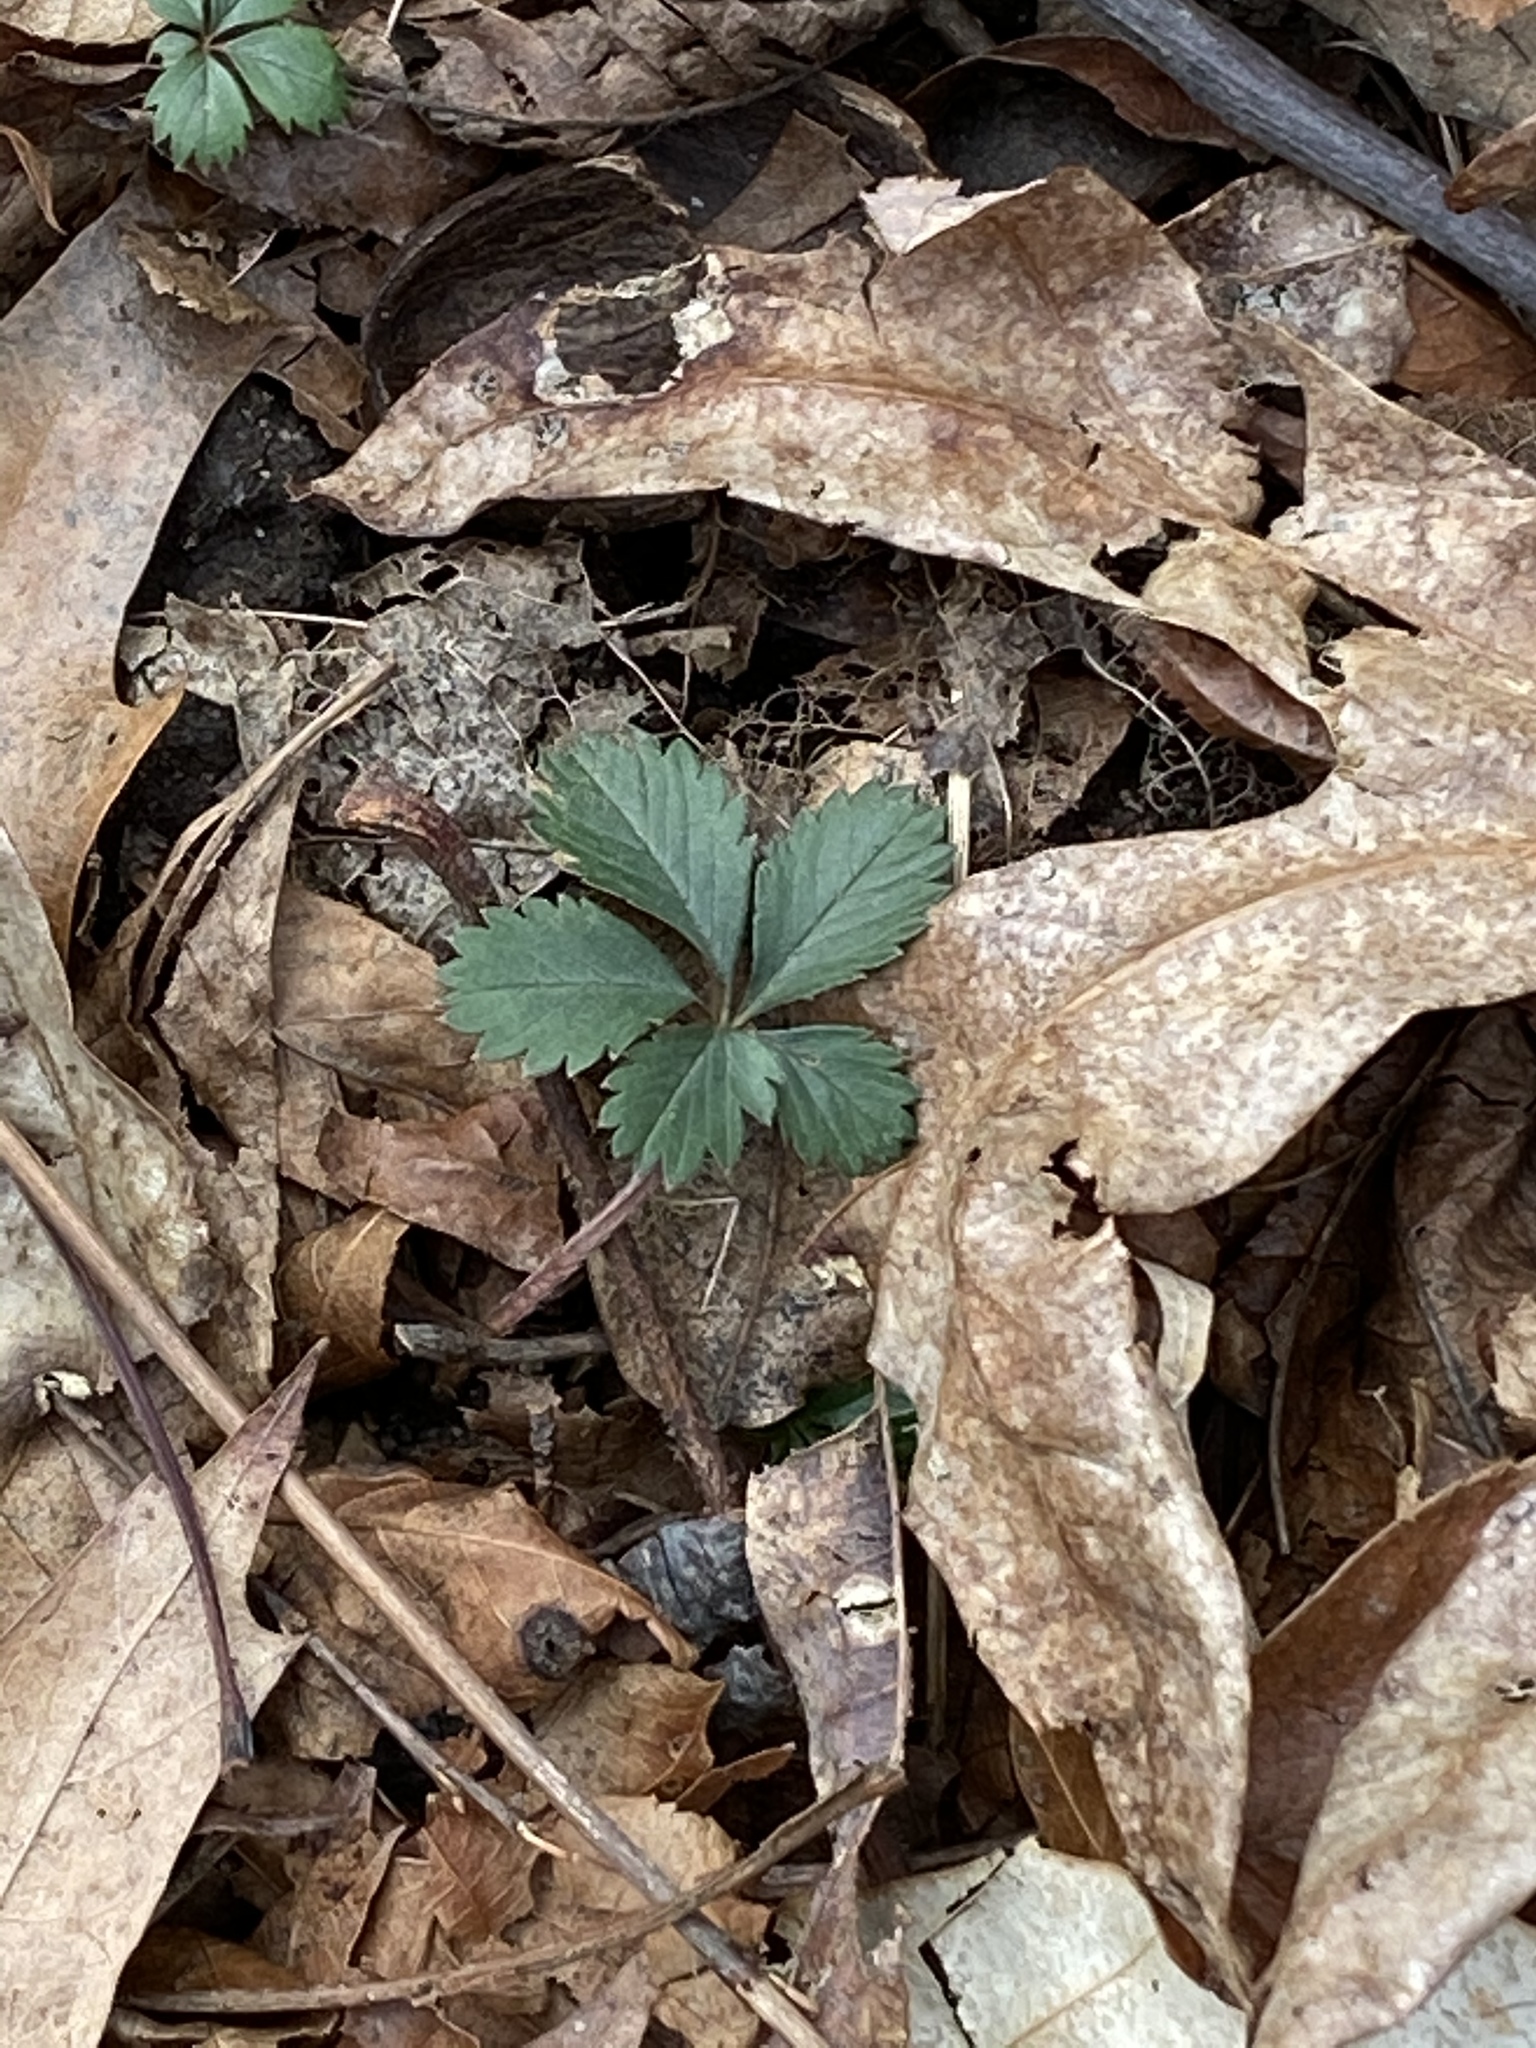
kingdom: Plantae
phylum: Tracheophyta
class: Magnoliopsida
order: Rosales
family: Rosaceae
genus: Potentilla
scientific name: Potentilla canadensis
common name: Canada cinquefoil
